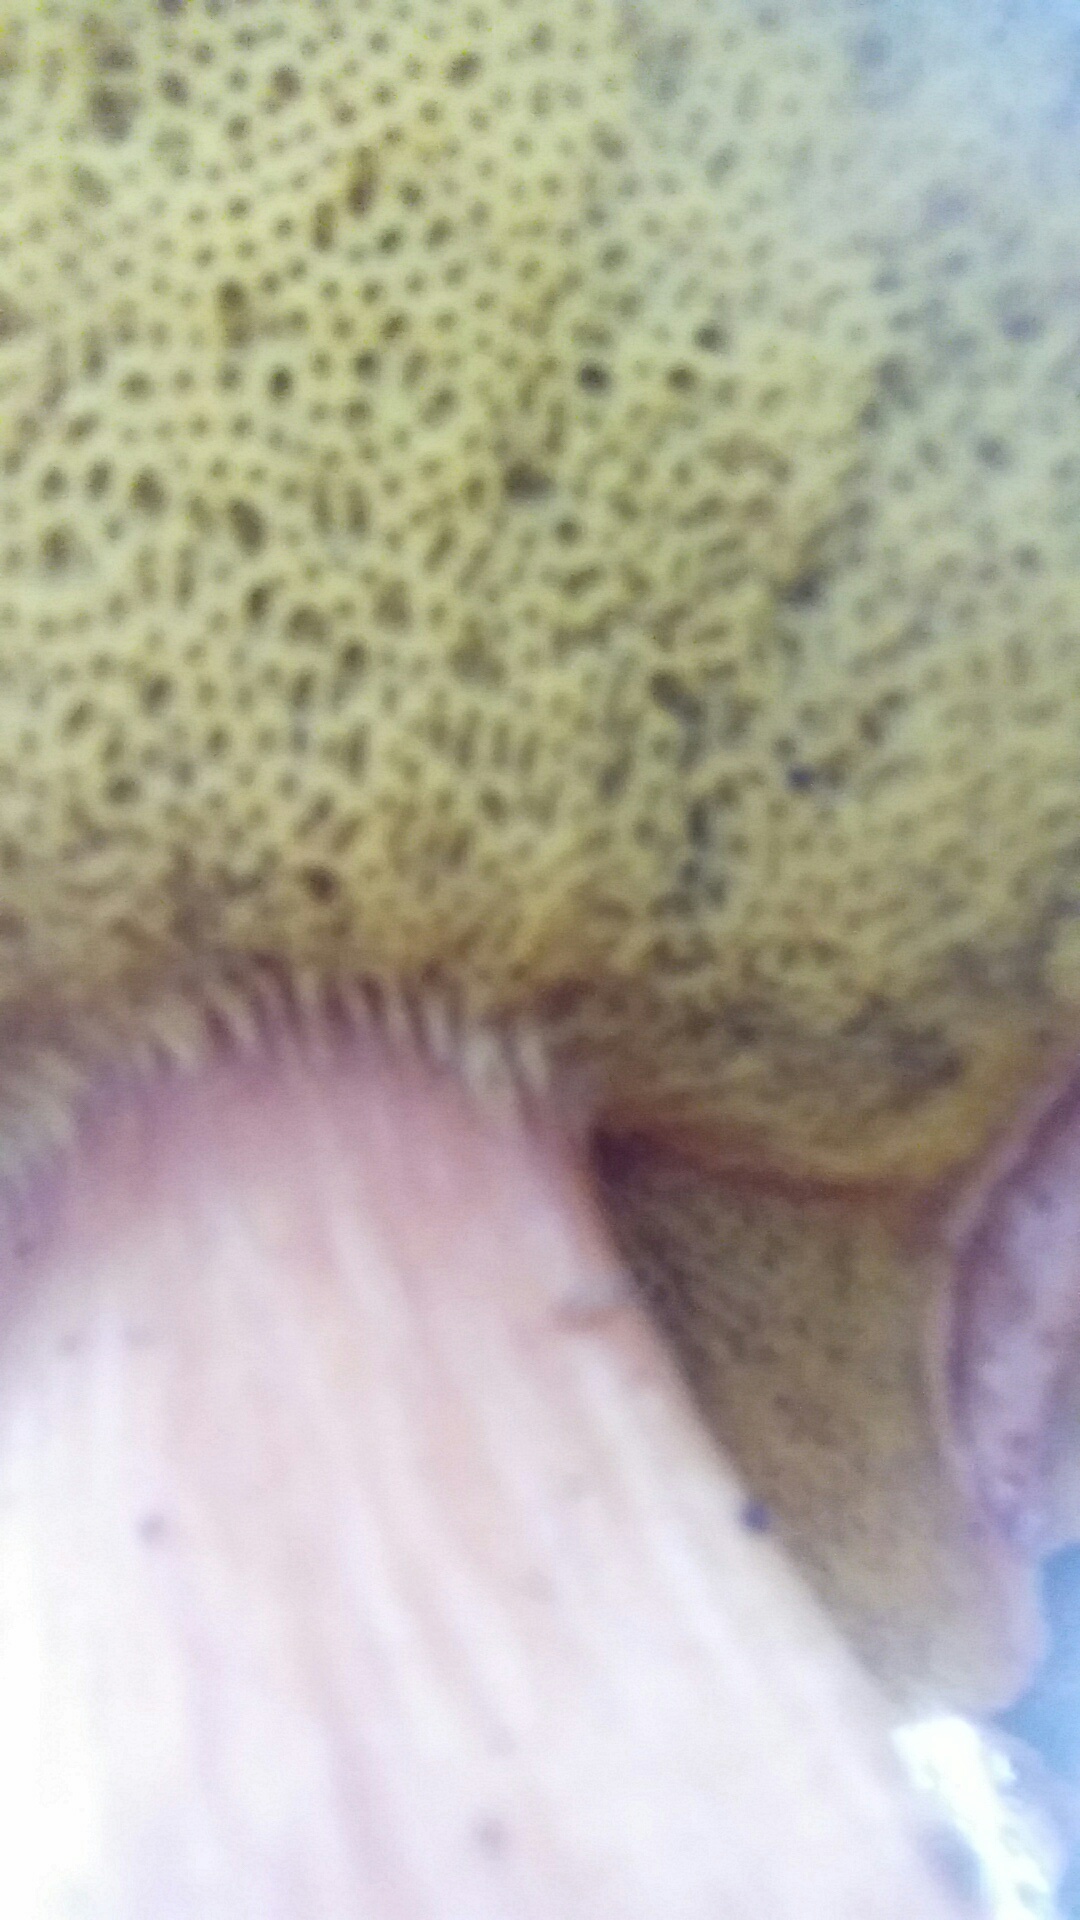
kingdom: Fungi
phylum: Basidiomycota
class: Agaricomycetes
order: Boletales
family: Boletaceae
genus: Aureoboletus
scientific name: Aureoboletus flaviporus
